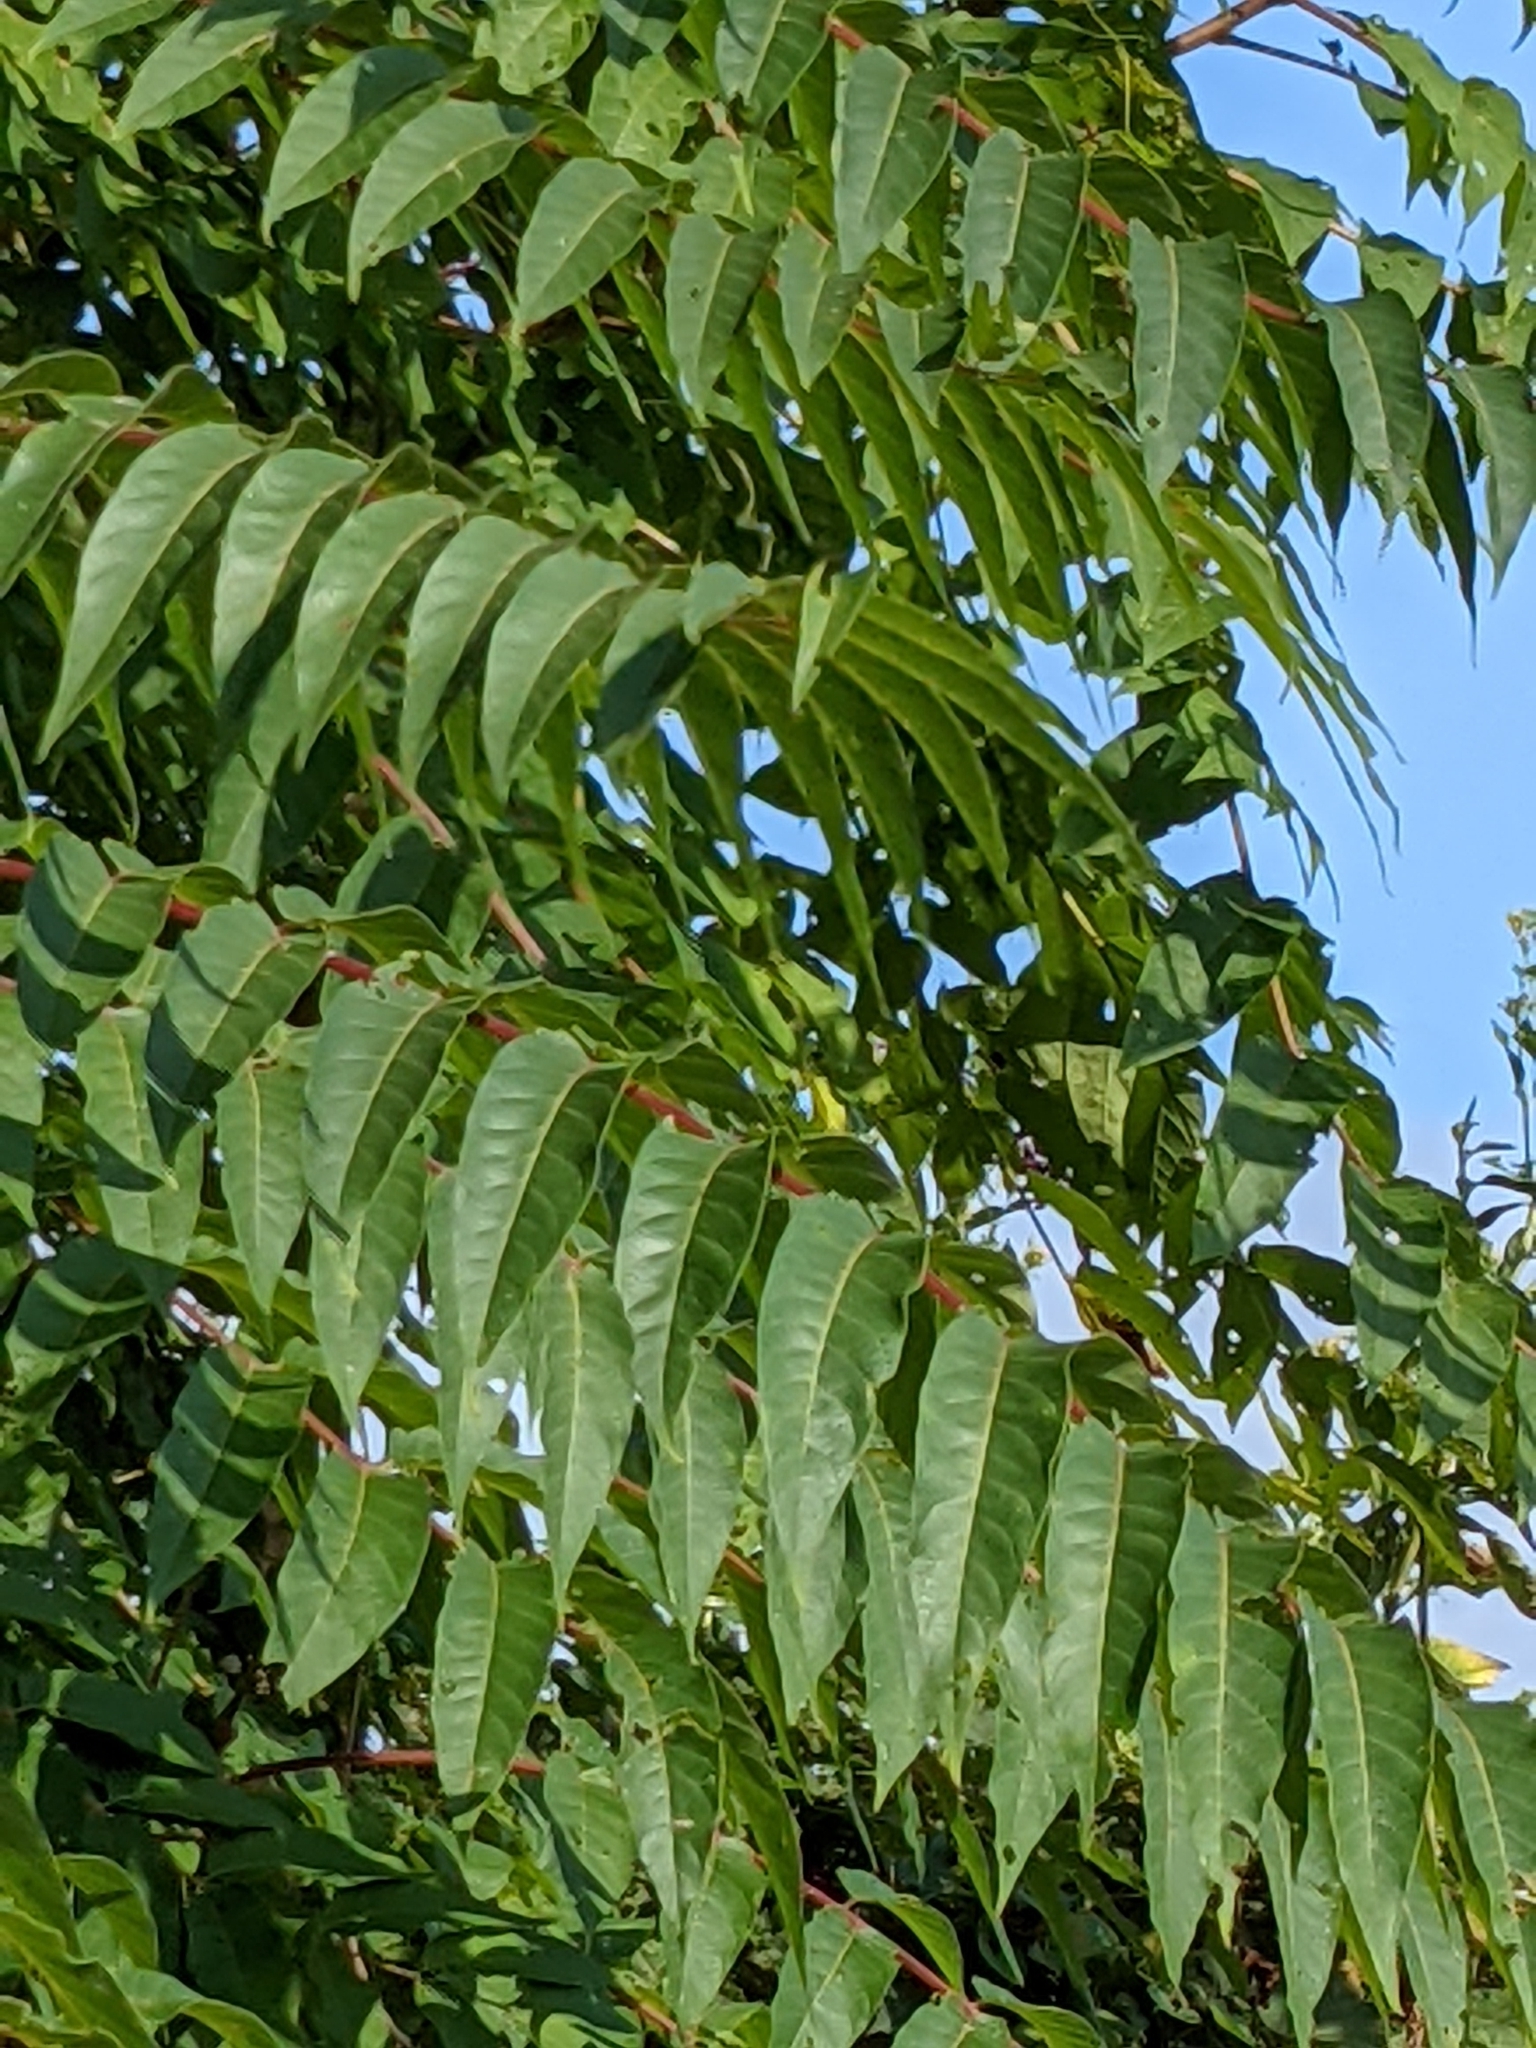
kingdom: Plantae
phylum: Tracheophyta
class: Magnoliopsida
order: Sapindales
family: Simaroubaceae
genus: Ailanthus
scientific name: Ailanthus altissima
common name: Tree-of-heaven
